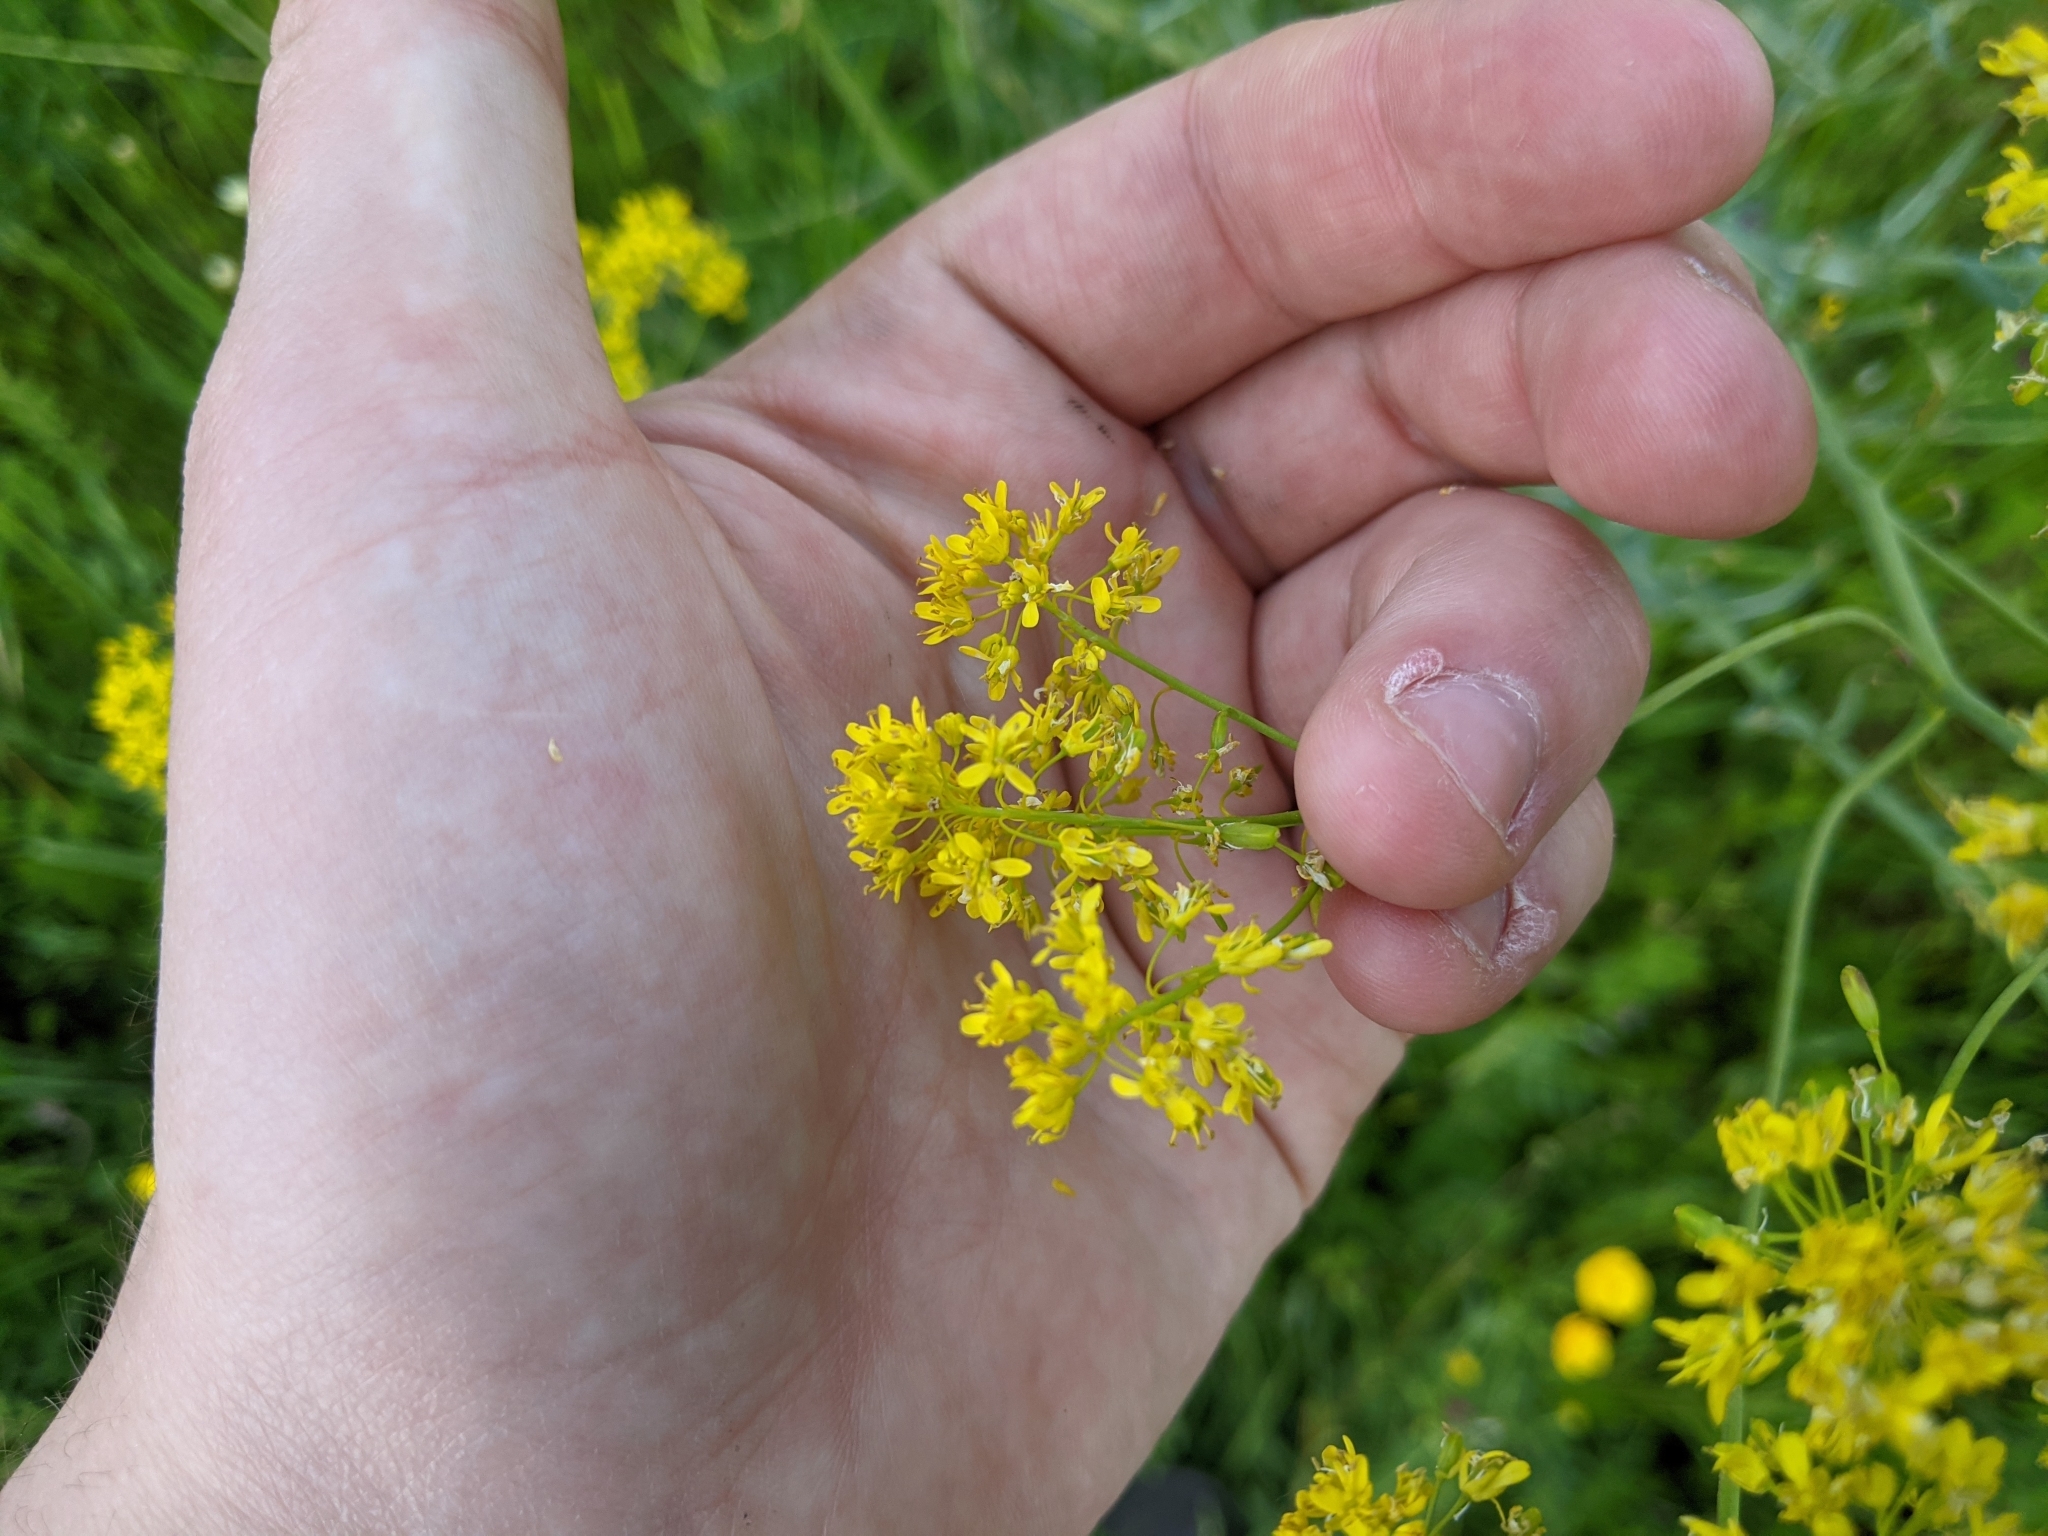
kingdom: Plantae
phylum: Tracheophyta
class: Magnoliopsida
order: Brassicales
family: Brassicaceae
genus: Isatis
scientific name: Isatis tinctoria
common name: Woad
